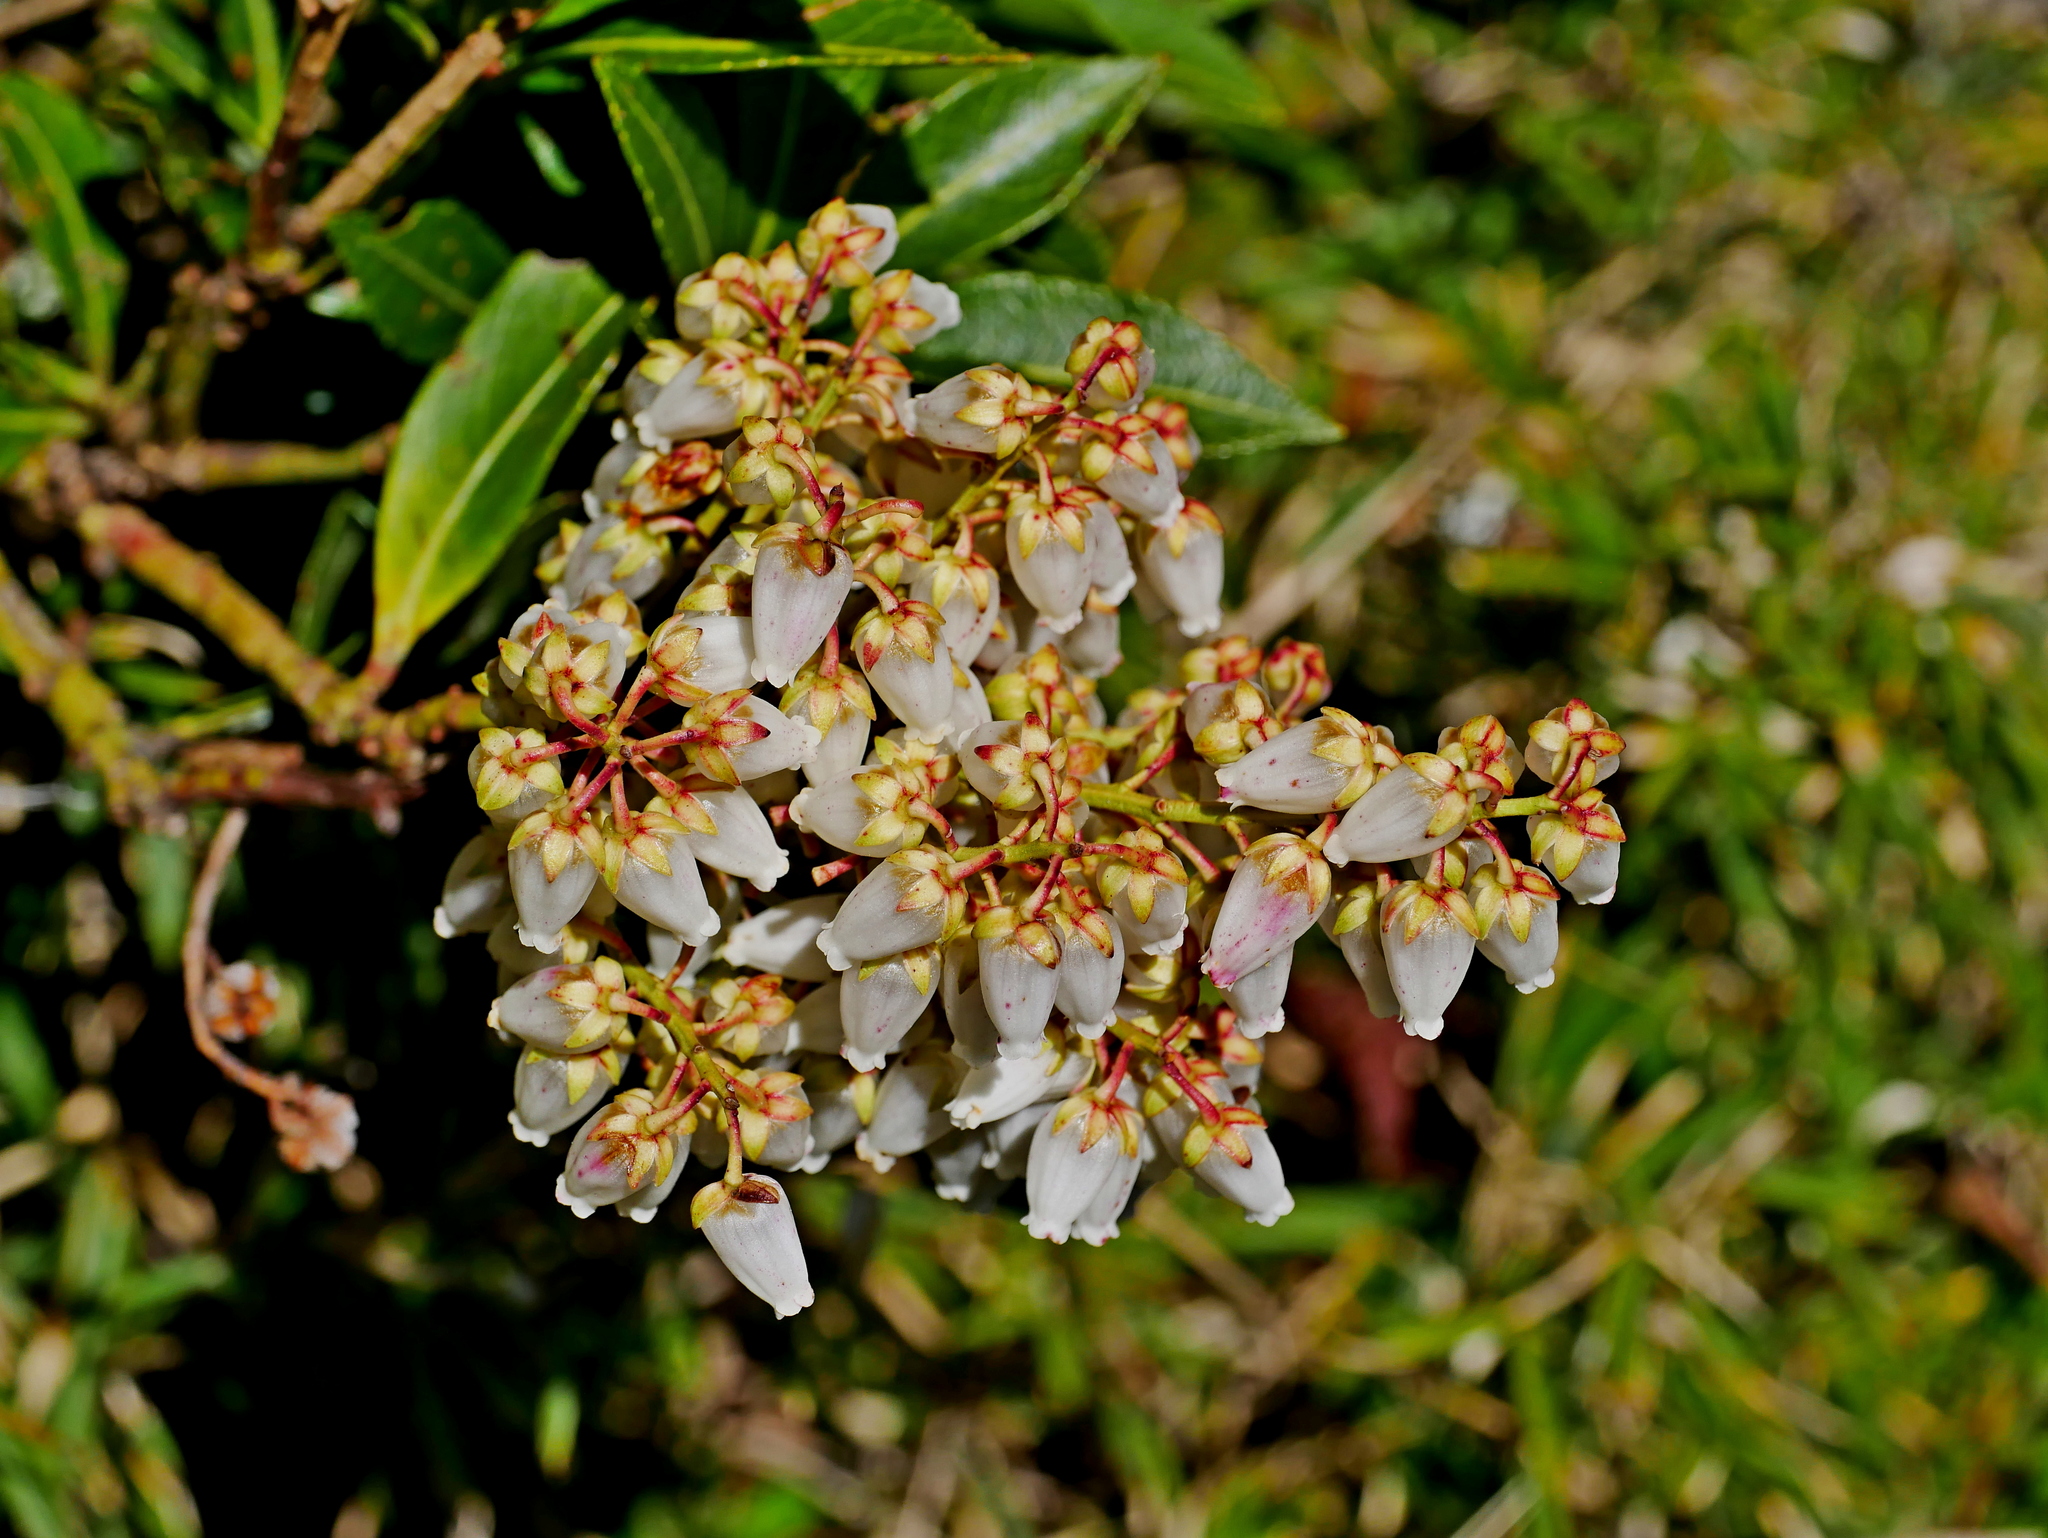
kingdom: Plantae
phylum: Tracheophyta
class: Magnoliopsida
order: Ericales
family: Ericaceae
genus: Pieris
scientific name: Pieris japonica
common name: Japanese pieris
